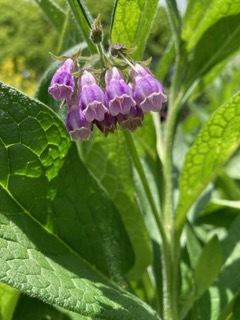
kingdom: Plantae
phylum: Tracheophyta
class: Magnoliopsida
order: Boraginales
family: Boraginaceae
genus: Symphytum
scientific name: Symphytum officinale
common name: Common comfrey
